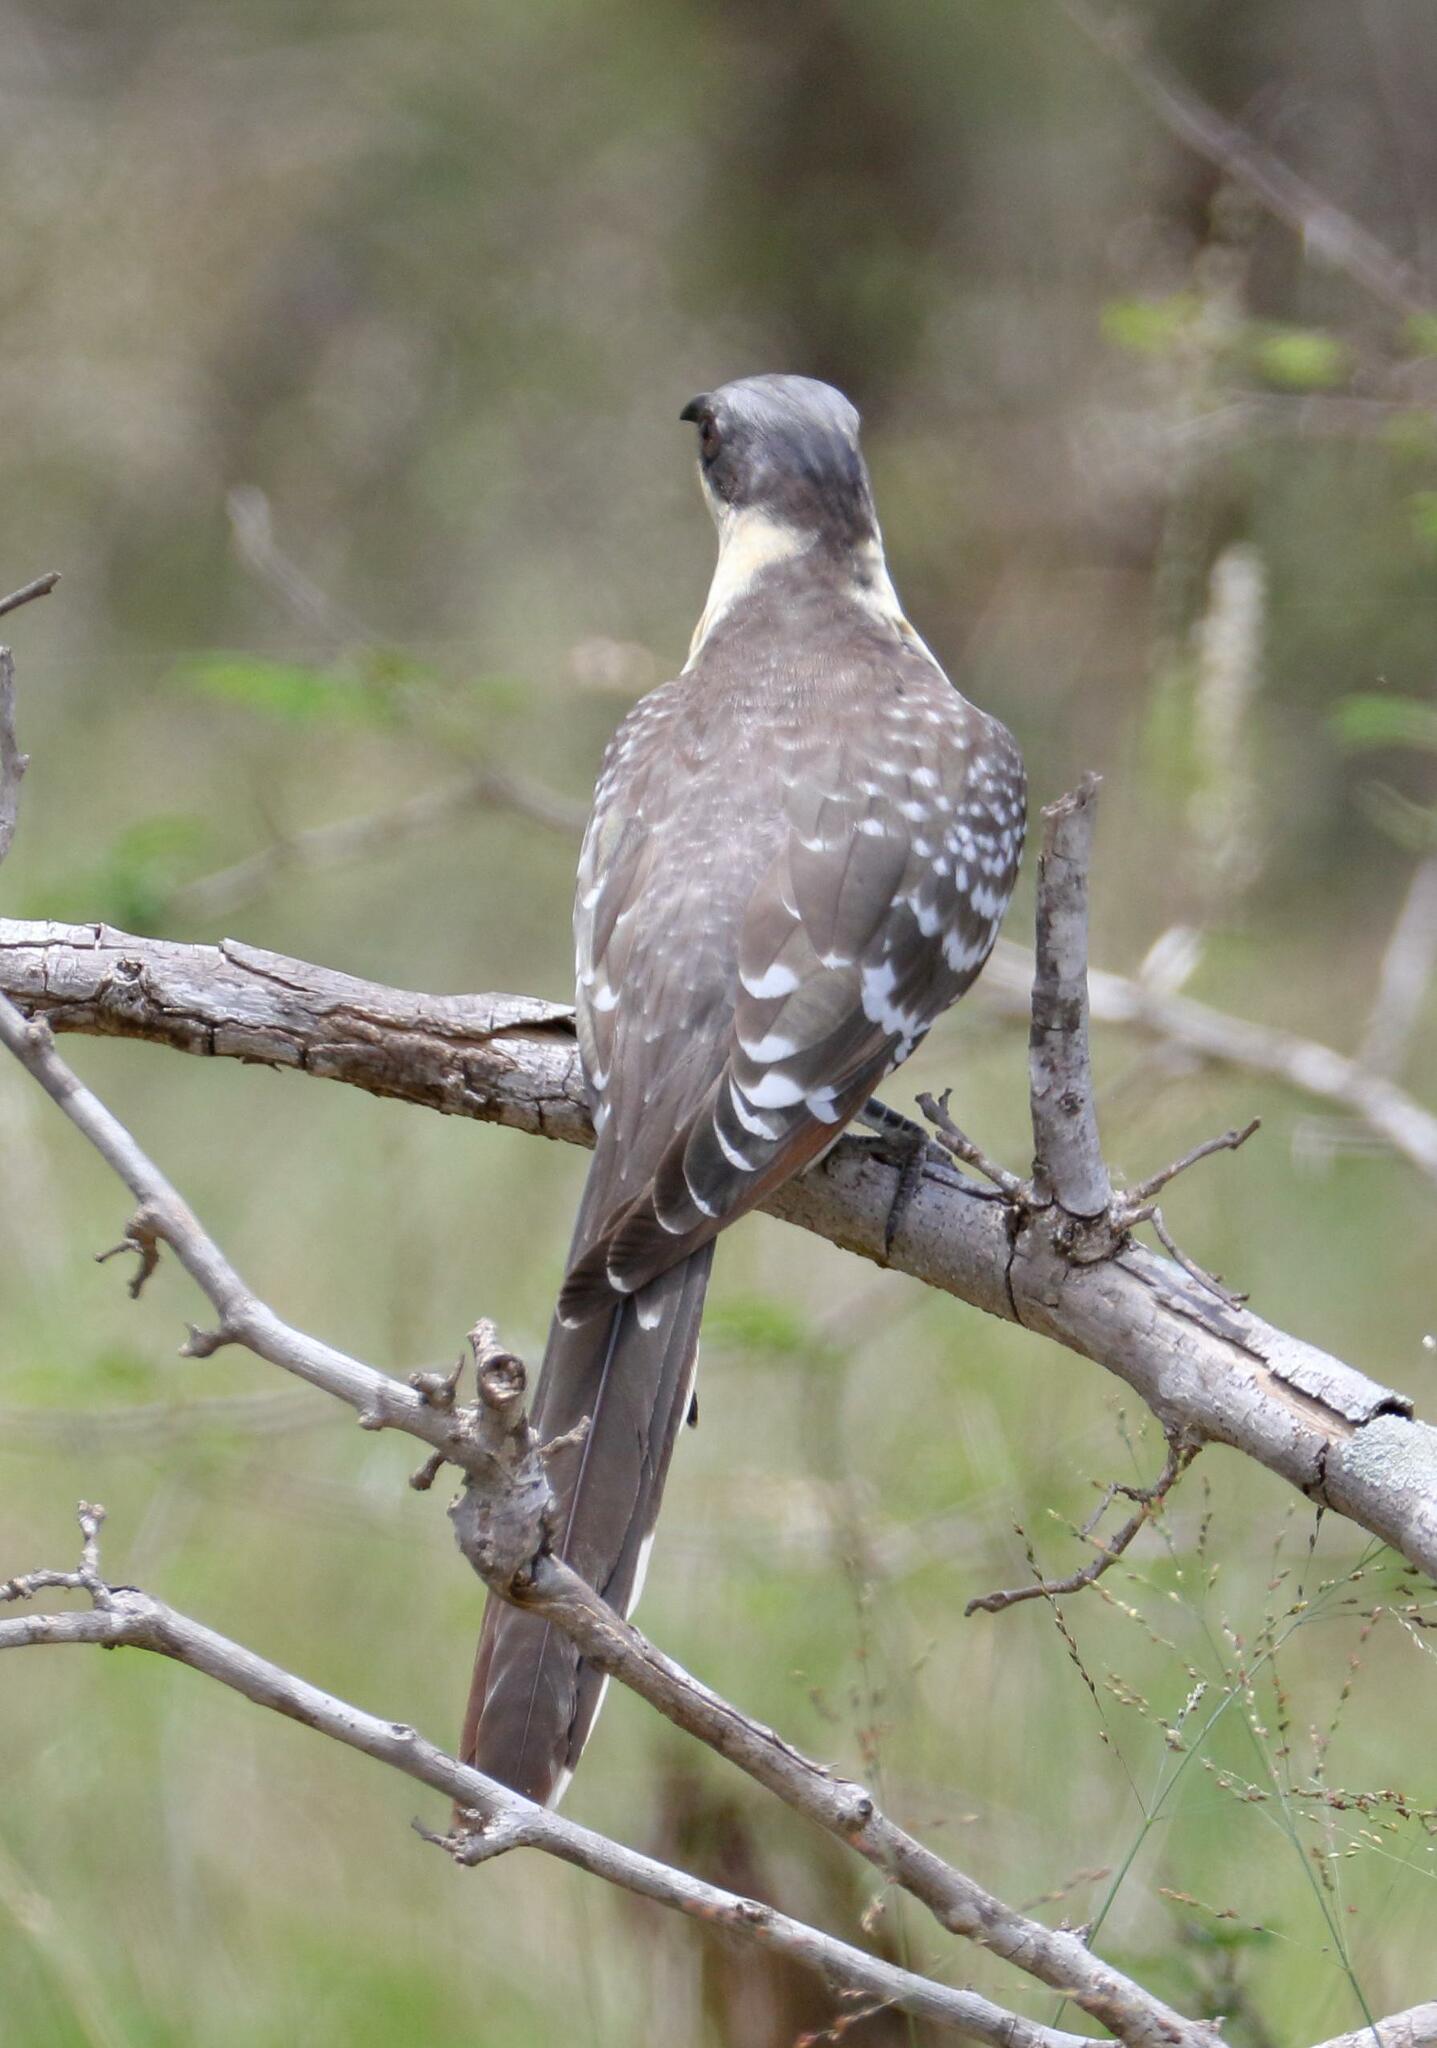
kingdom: Animalia
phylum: Chordata
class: Aves
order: Cuculiformes
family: Cuculidae
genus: Clamator
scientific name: Clamator glandarius
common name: Great spotted cuckoo
